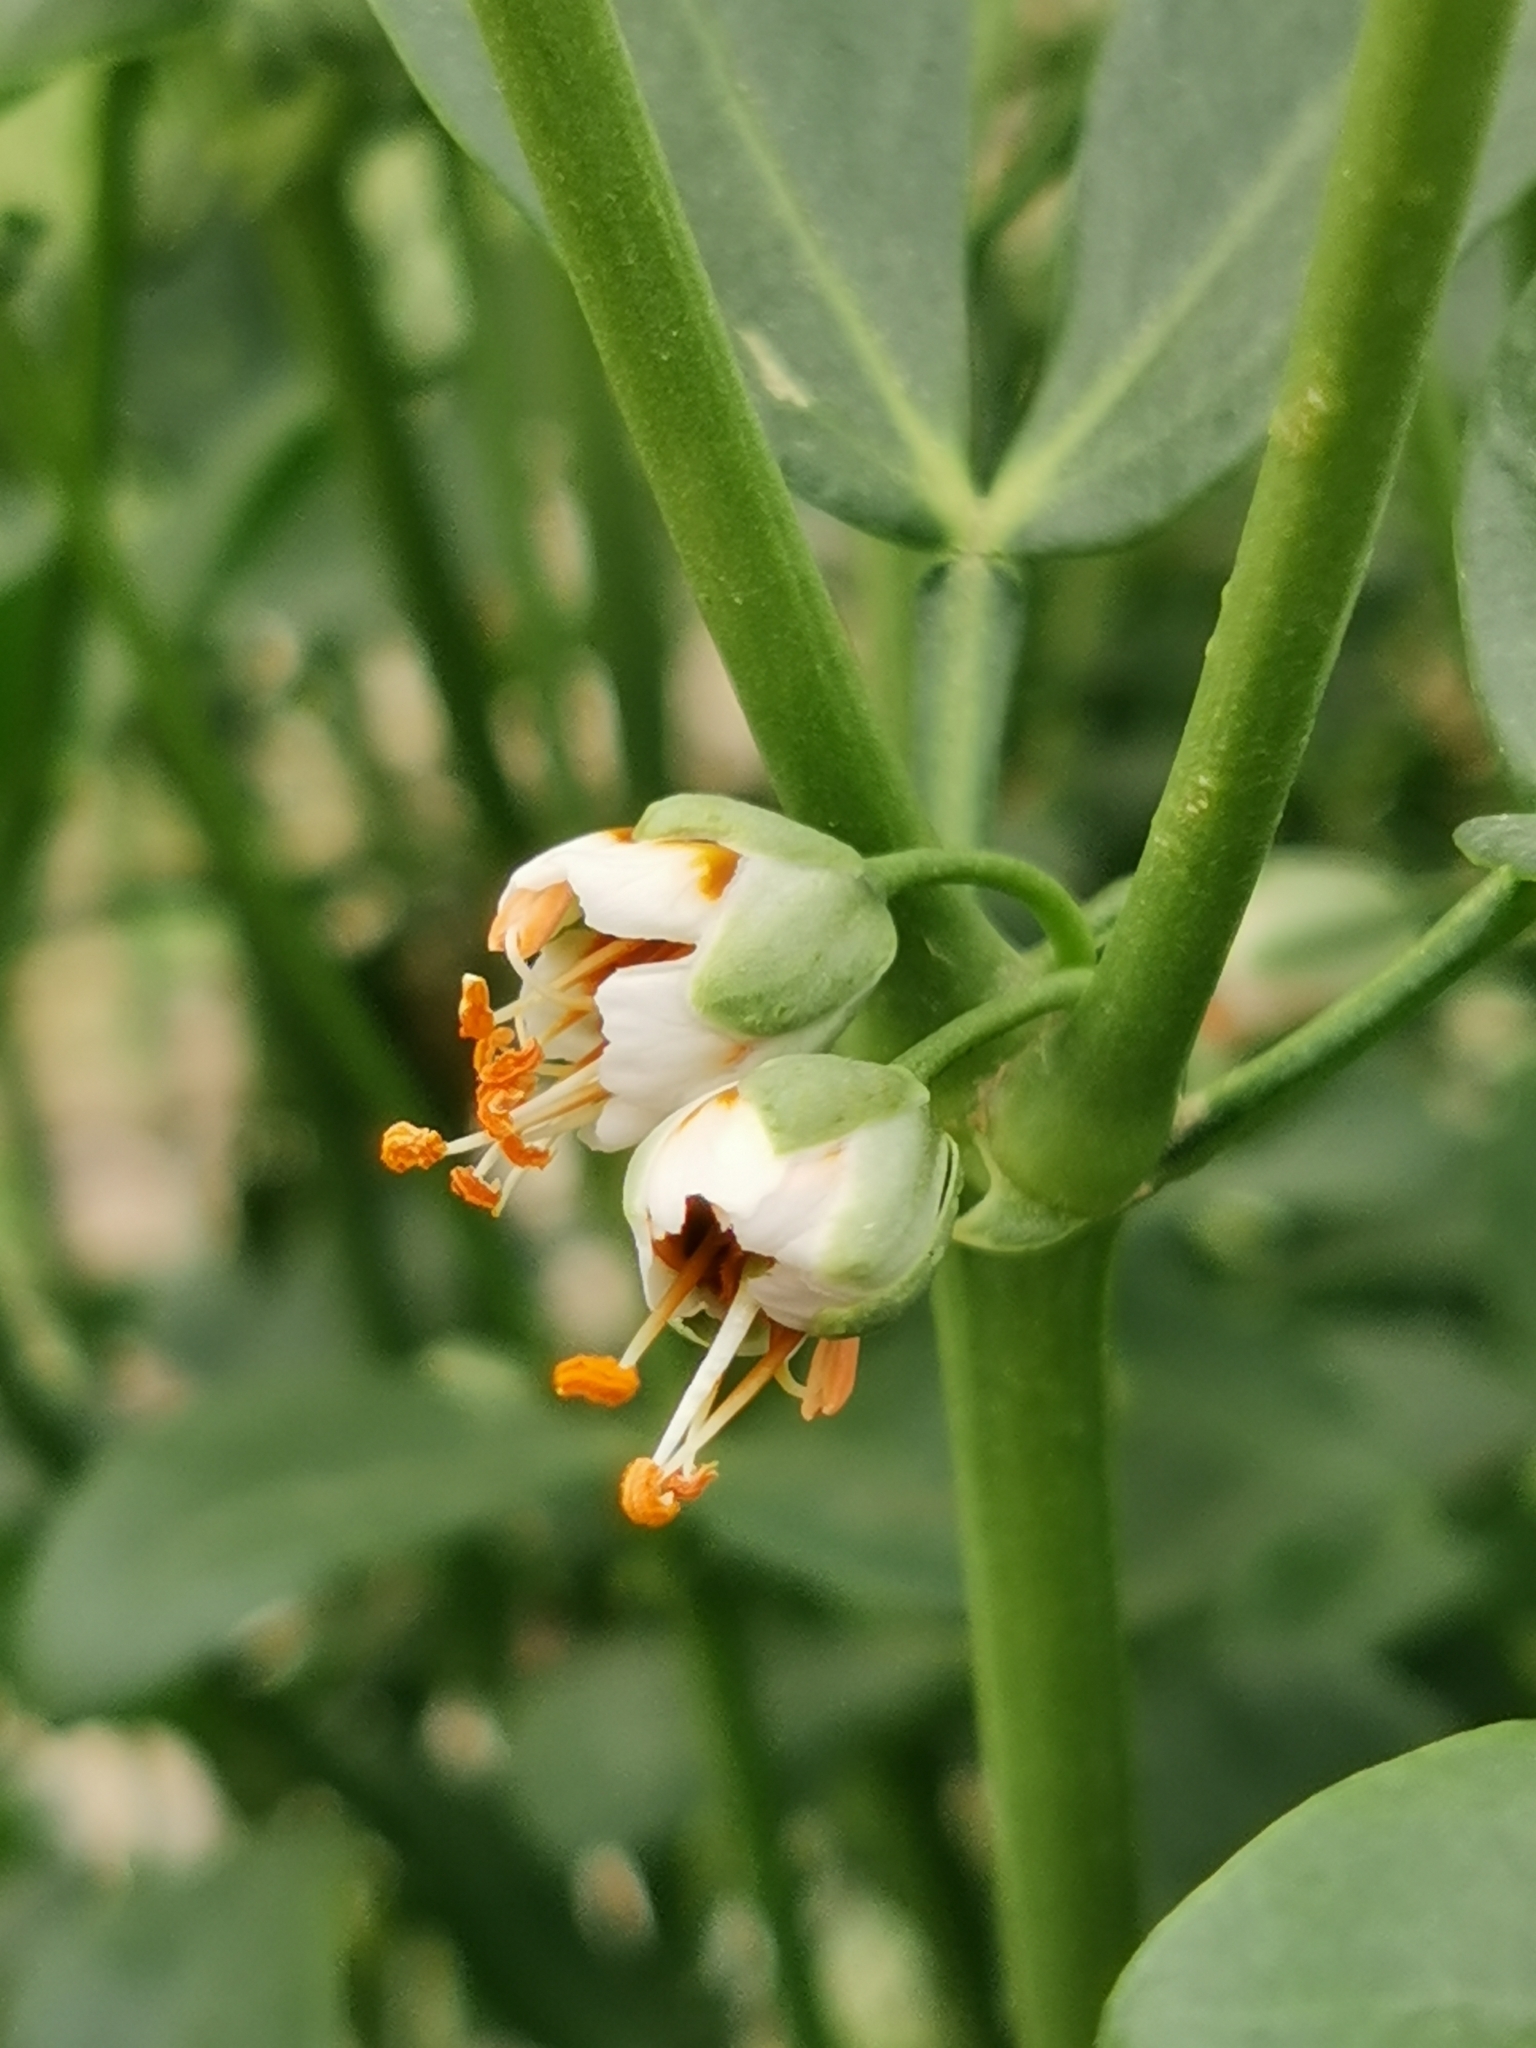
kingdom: Plantae
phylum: Tracheophyta
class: Magnoliopsida
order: Zygophyllales
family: Zygophyllaceae
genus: Zygophyllum
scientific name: Zygophyllum fabago
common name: Syrian beancaper
